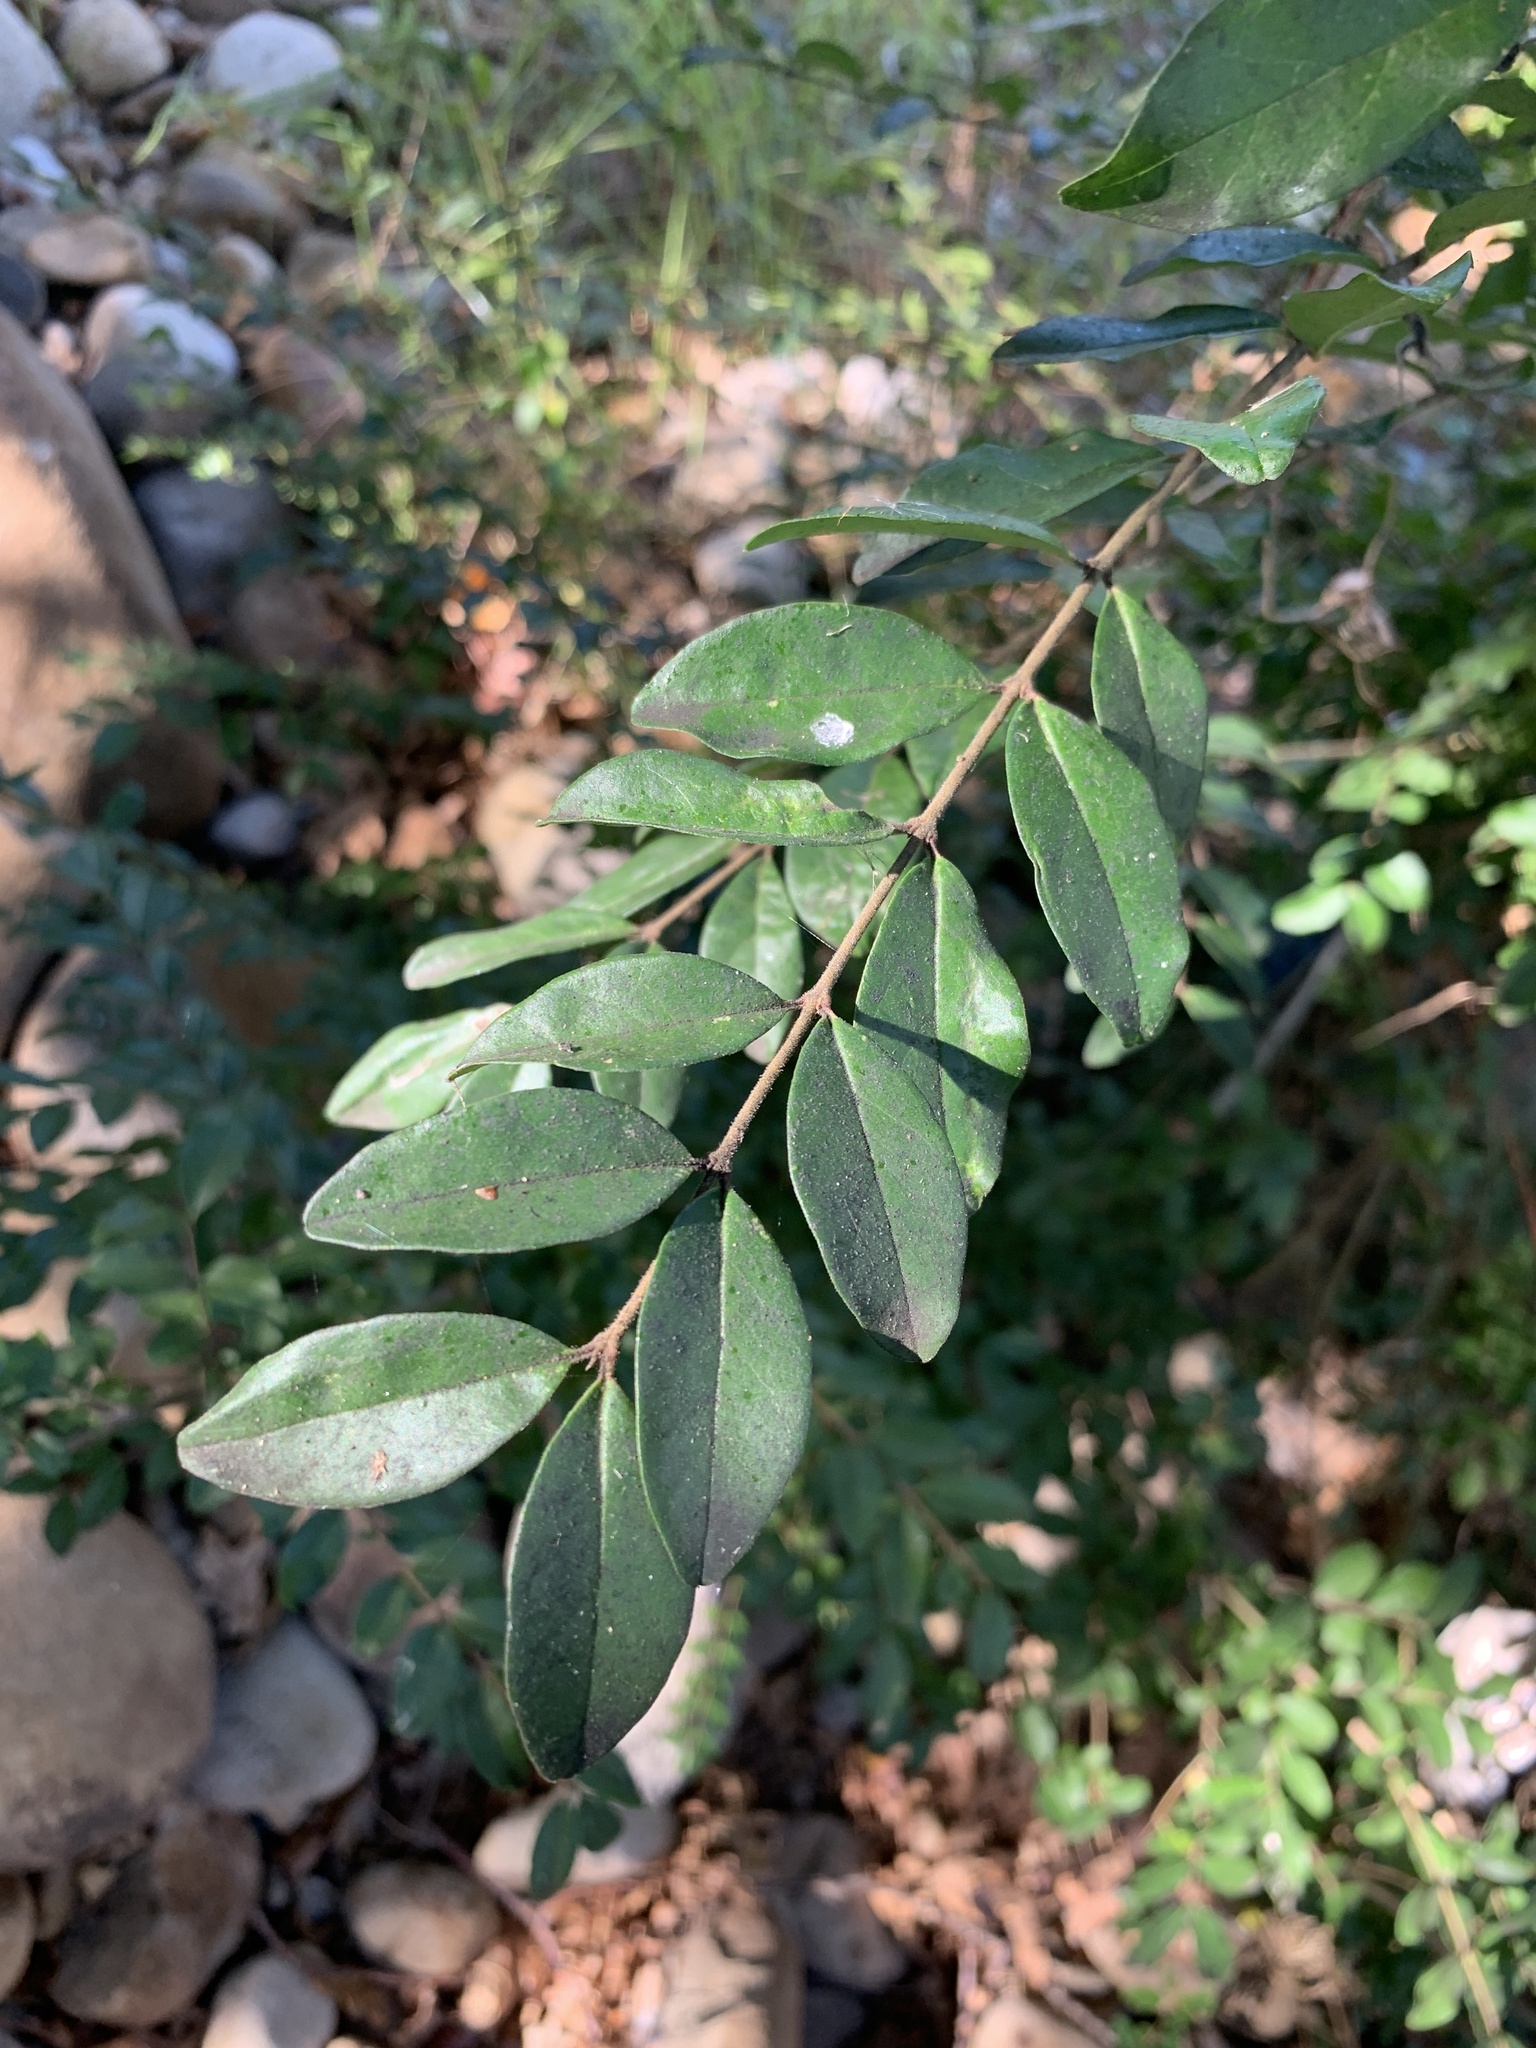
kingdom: Plantae
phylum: Tracheophyta
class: Magnoliopsida
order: Lamiales
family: Oleaceae
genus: Ligustrum
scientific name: Ligustrum sinense
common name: Chinese privet
